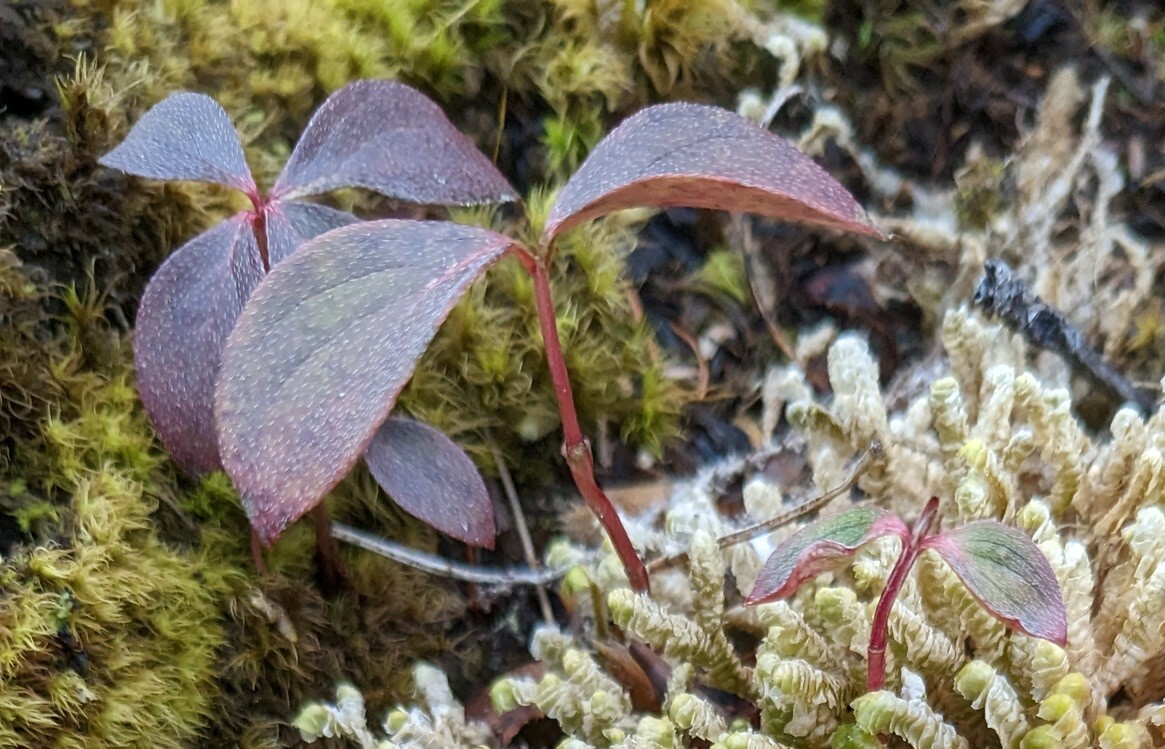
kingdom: Plantae
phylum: Tracheophyta
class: Magnoliopsida
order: Cornales
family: Cornaceae
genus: Cornus
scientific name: Cornus canadensis
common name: Creeping dogwood
